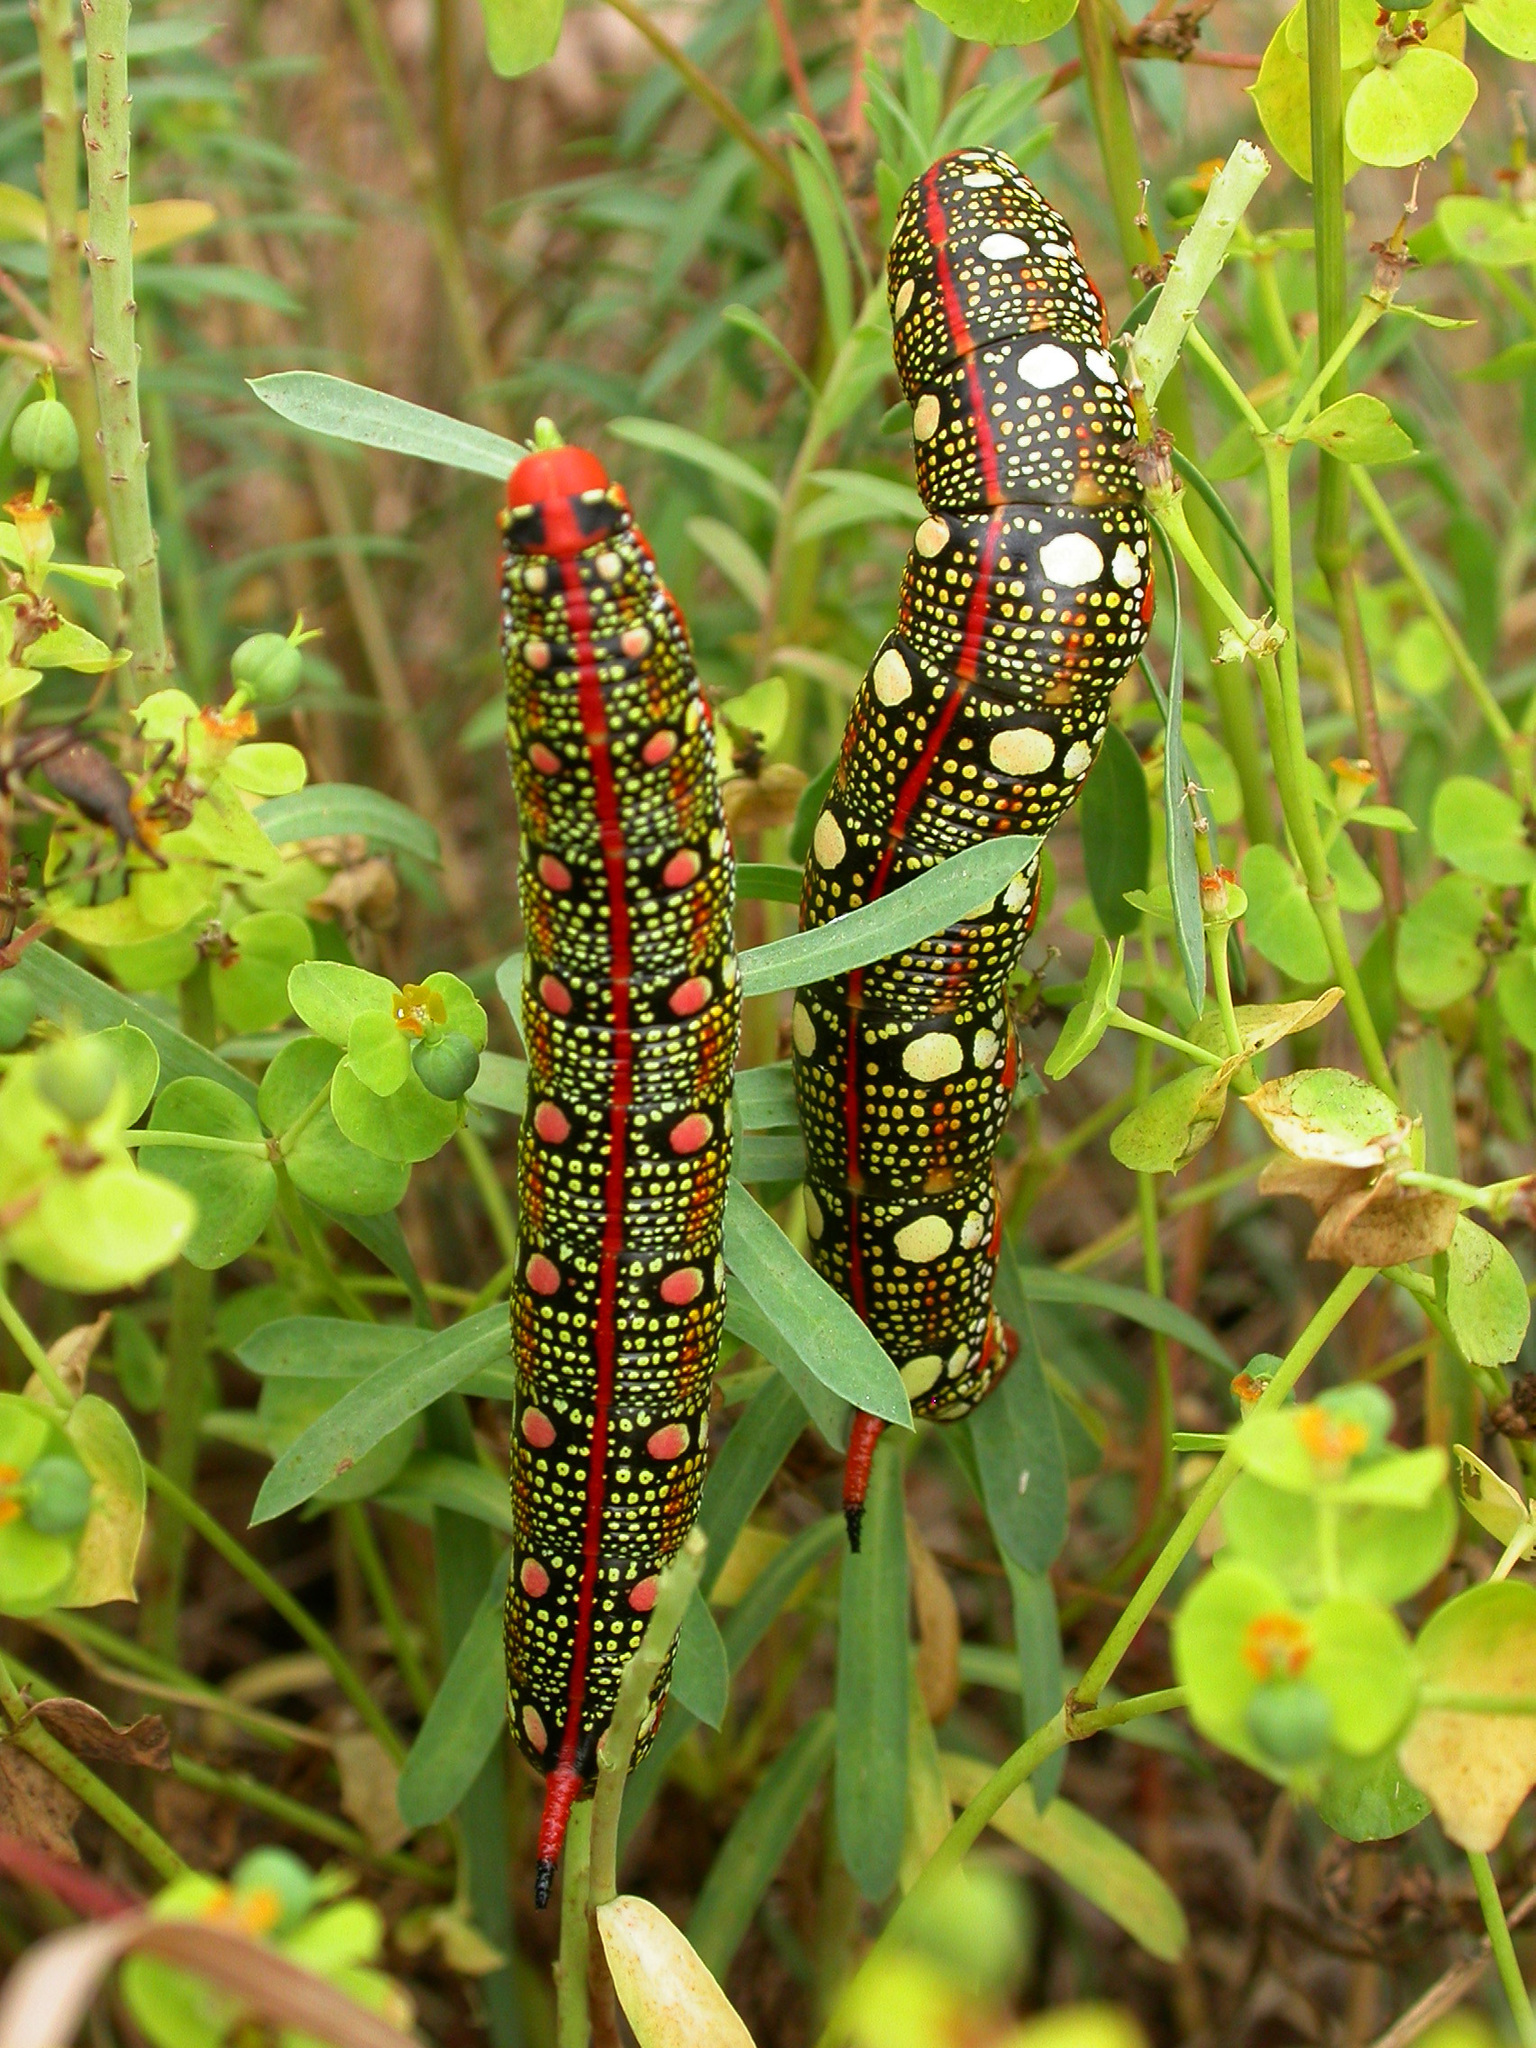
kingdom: Animalia
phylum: Arthropoda
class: Insecta
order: Lepidoptera
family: Sphingidae
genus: Hyles
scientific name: Hyles euphorbiae
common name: Spurge hawk-moth
